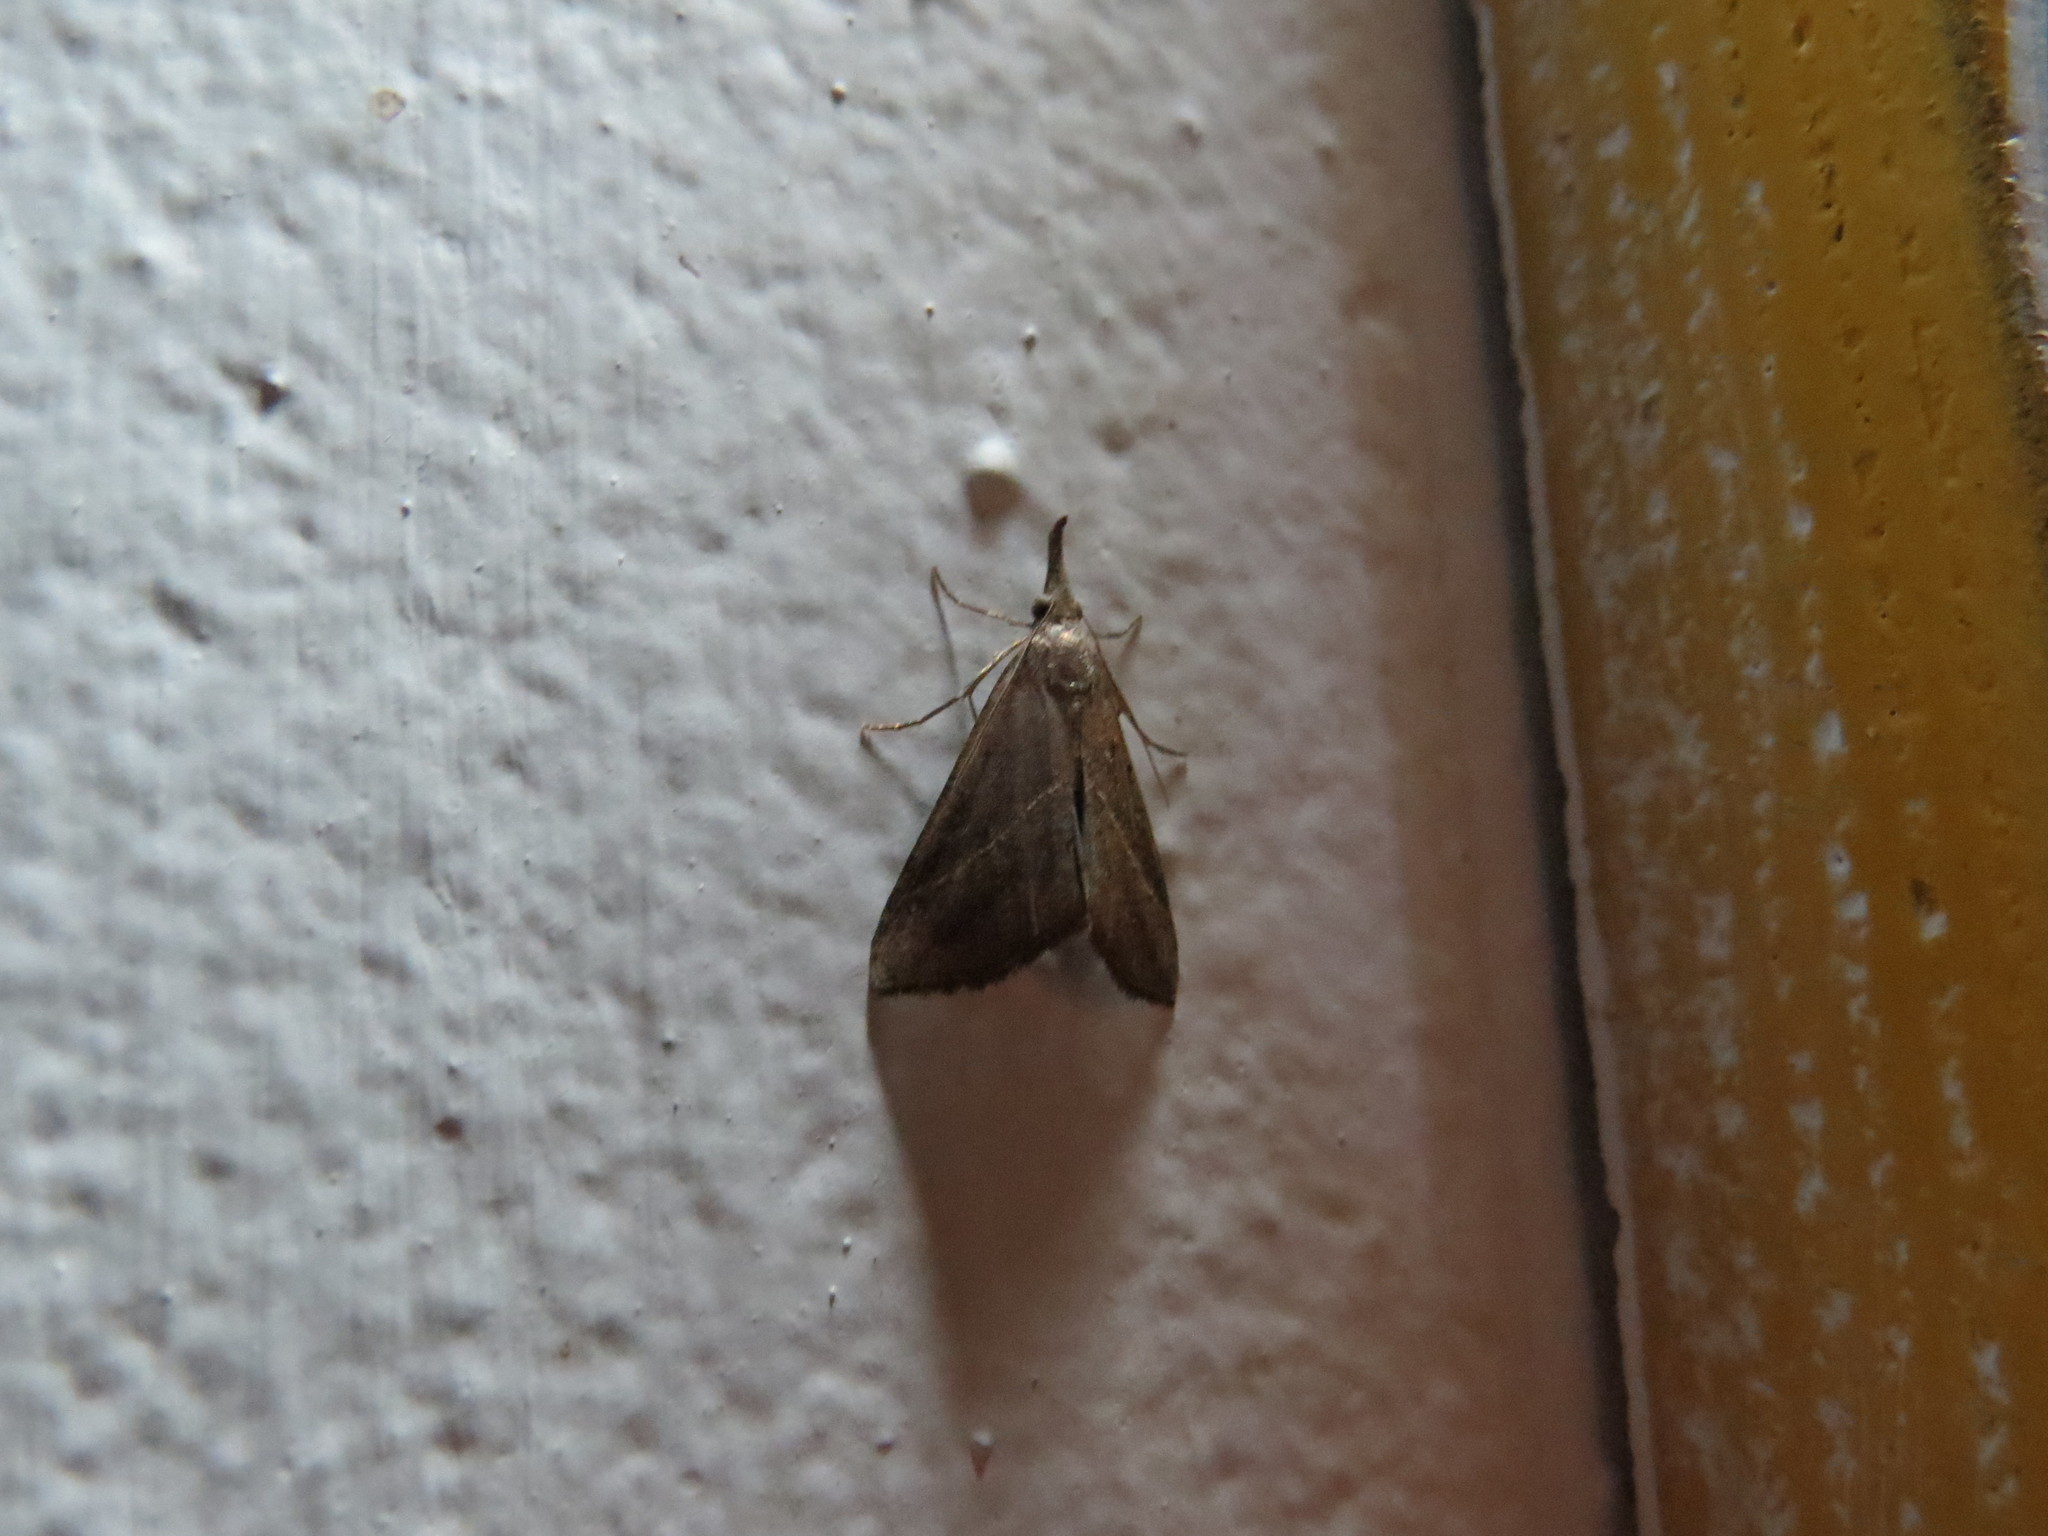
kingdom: Animalia
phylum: Arthropoda
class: Insecta
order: Lepidoptera
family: Erebidae
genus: Hypena
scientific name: Hypena lividalis
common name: Chevron snout
